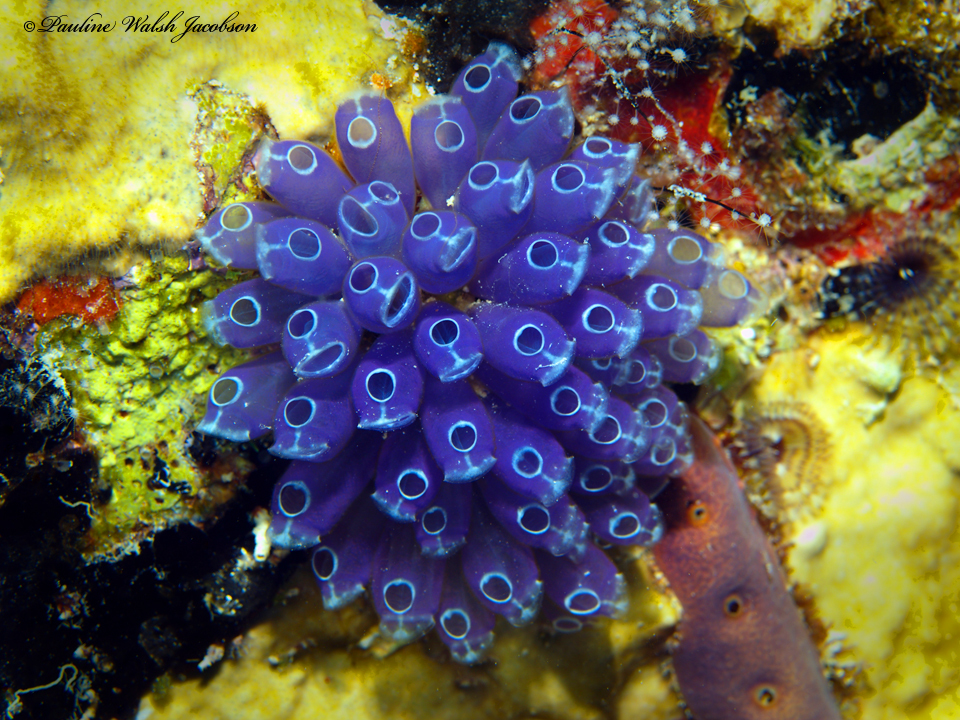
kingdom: Animalia
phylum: Chordata
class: Ascidiacea
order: Aplousobranchia
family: Clavelinidae
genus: Clavelina
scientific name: Clavelina puertosecensis
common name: Blue bell tunicate
